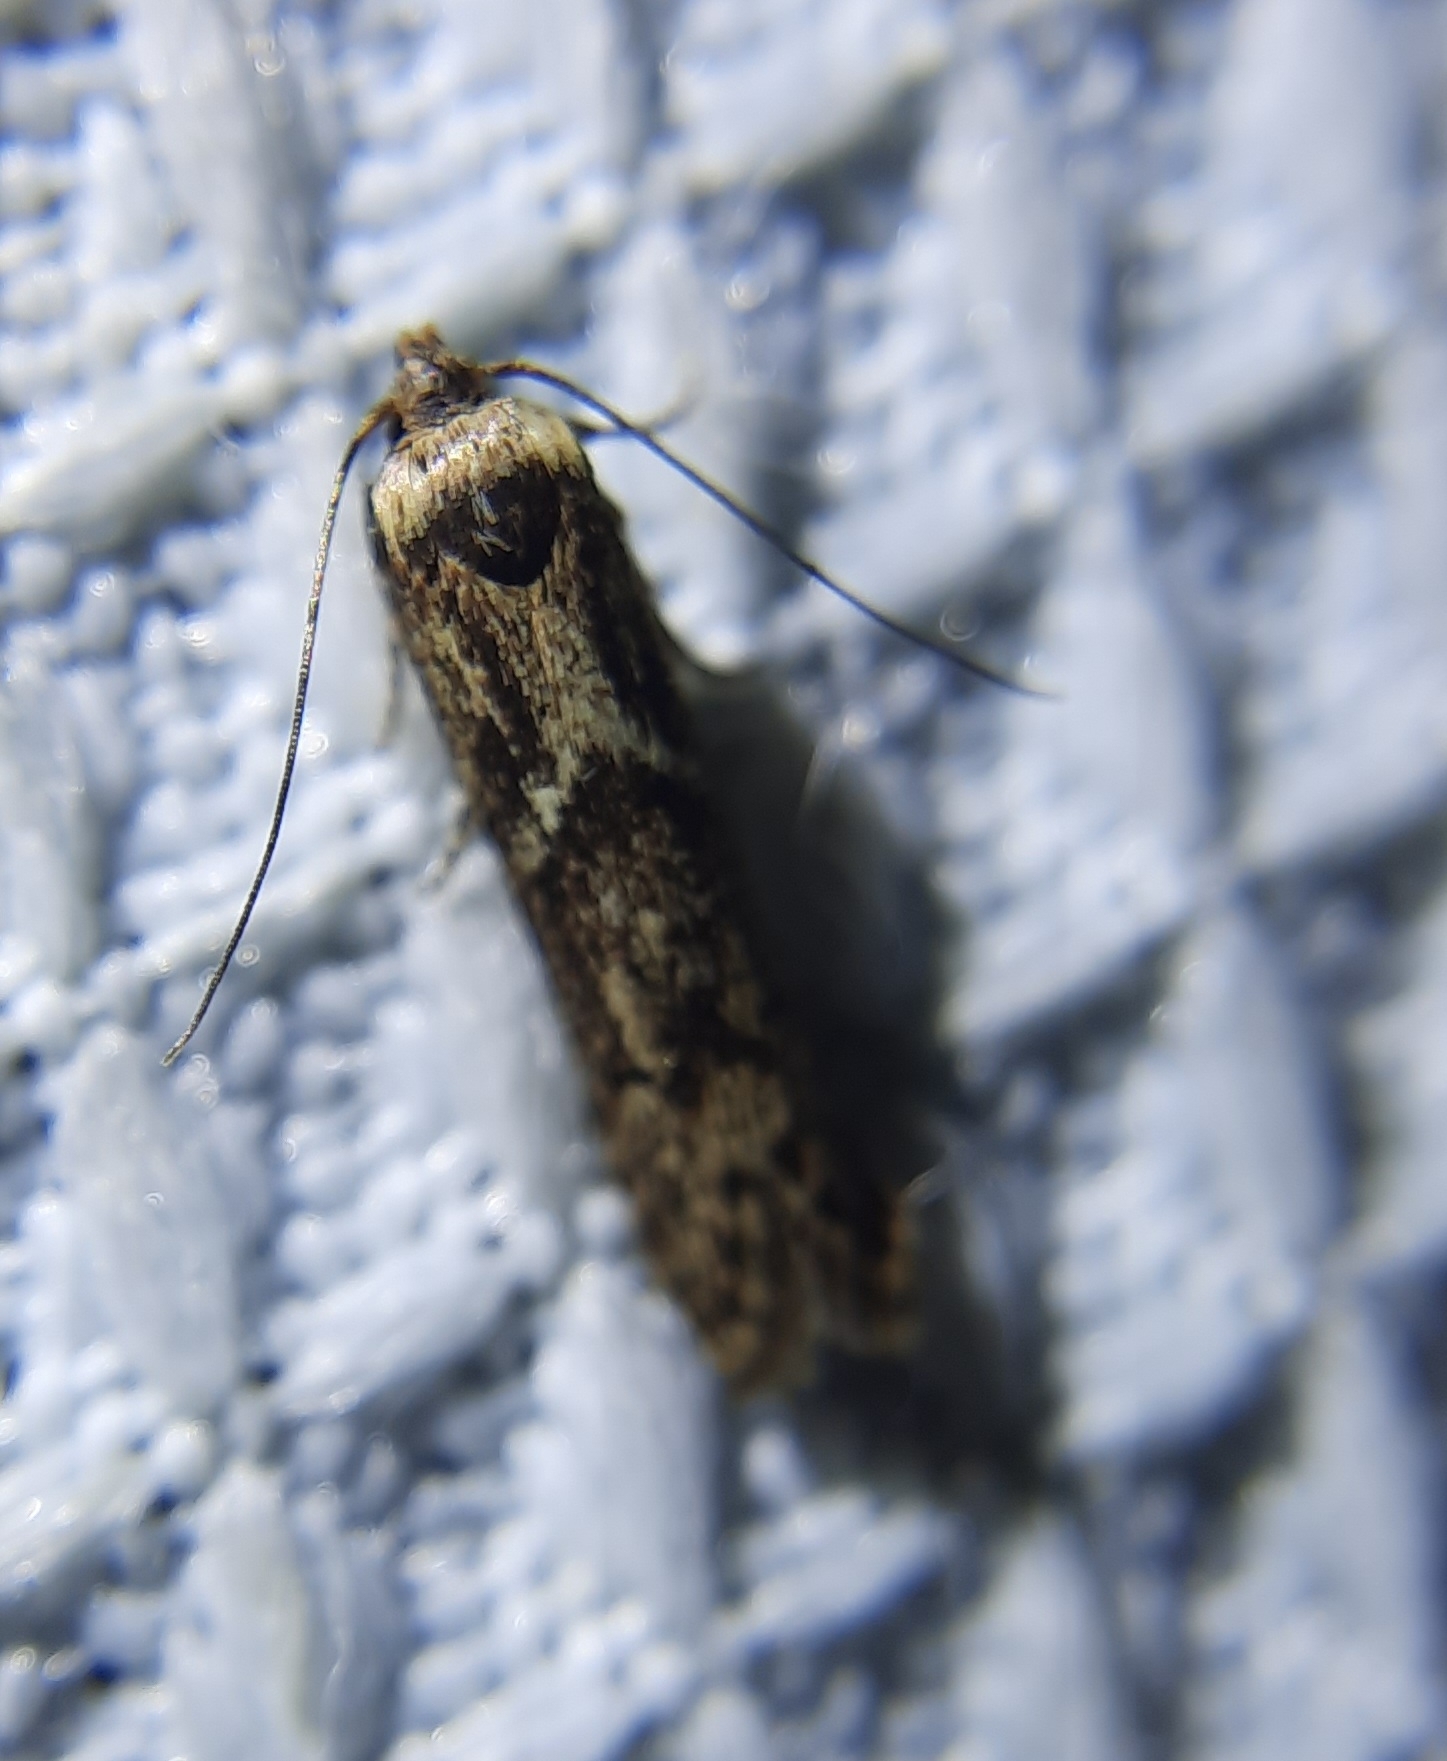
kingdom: Animalia
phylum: Arthropoda
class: Insecta
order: Lepidoptera
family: Blastobasidae
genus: Blastobasis
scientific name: Blastobasis adustella
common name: Dingy dowd
